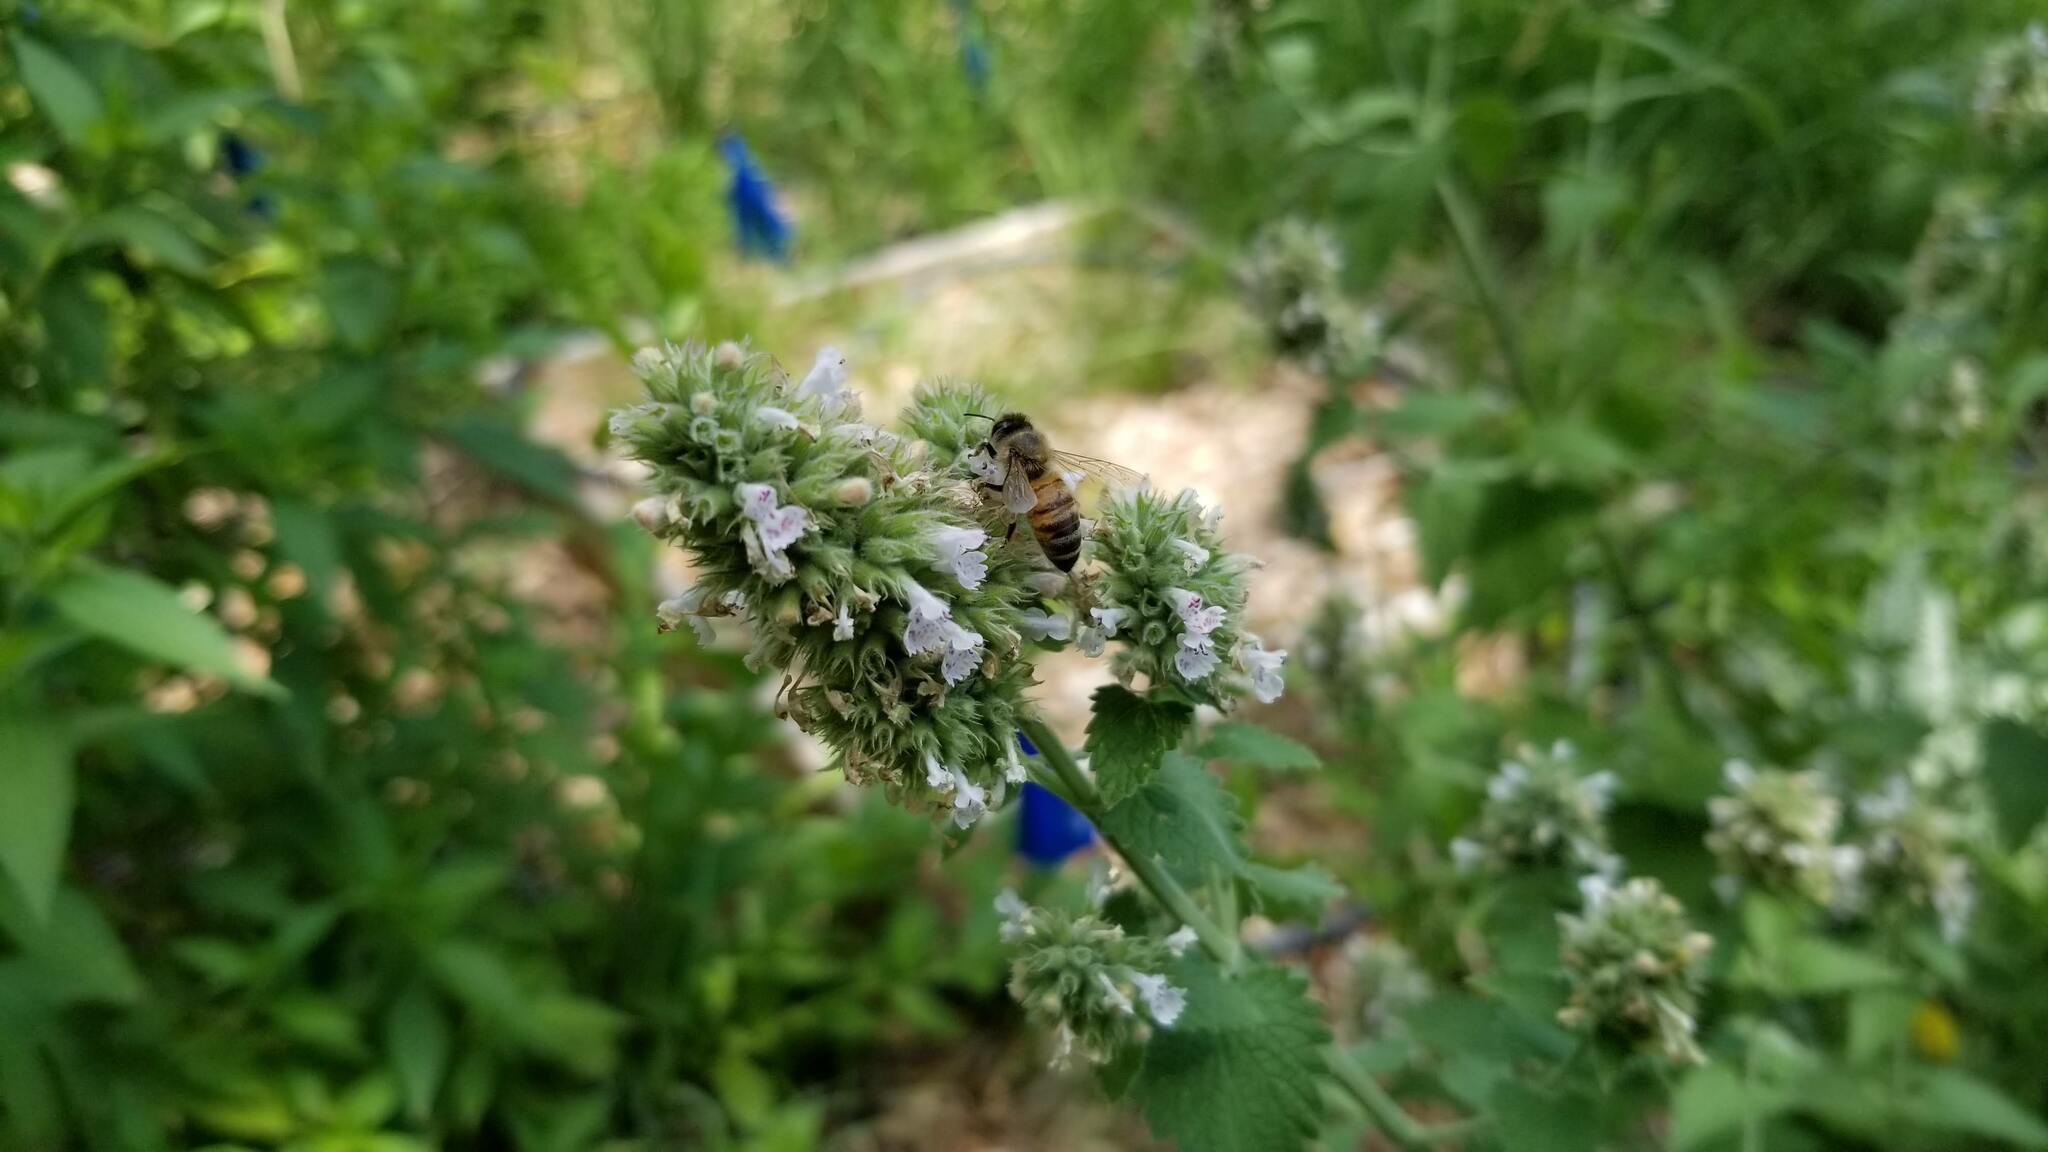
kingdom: Animalia
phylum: Arthropoda
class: Insecta
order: Hymenoptera
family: Apidae
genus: Apis
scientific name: Apis mellifera
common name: Honey bee
